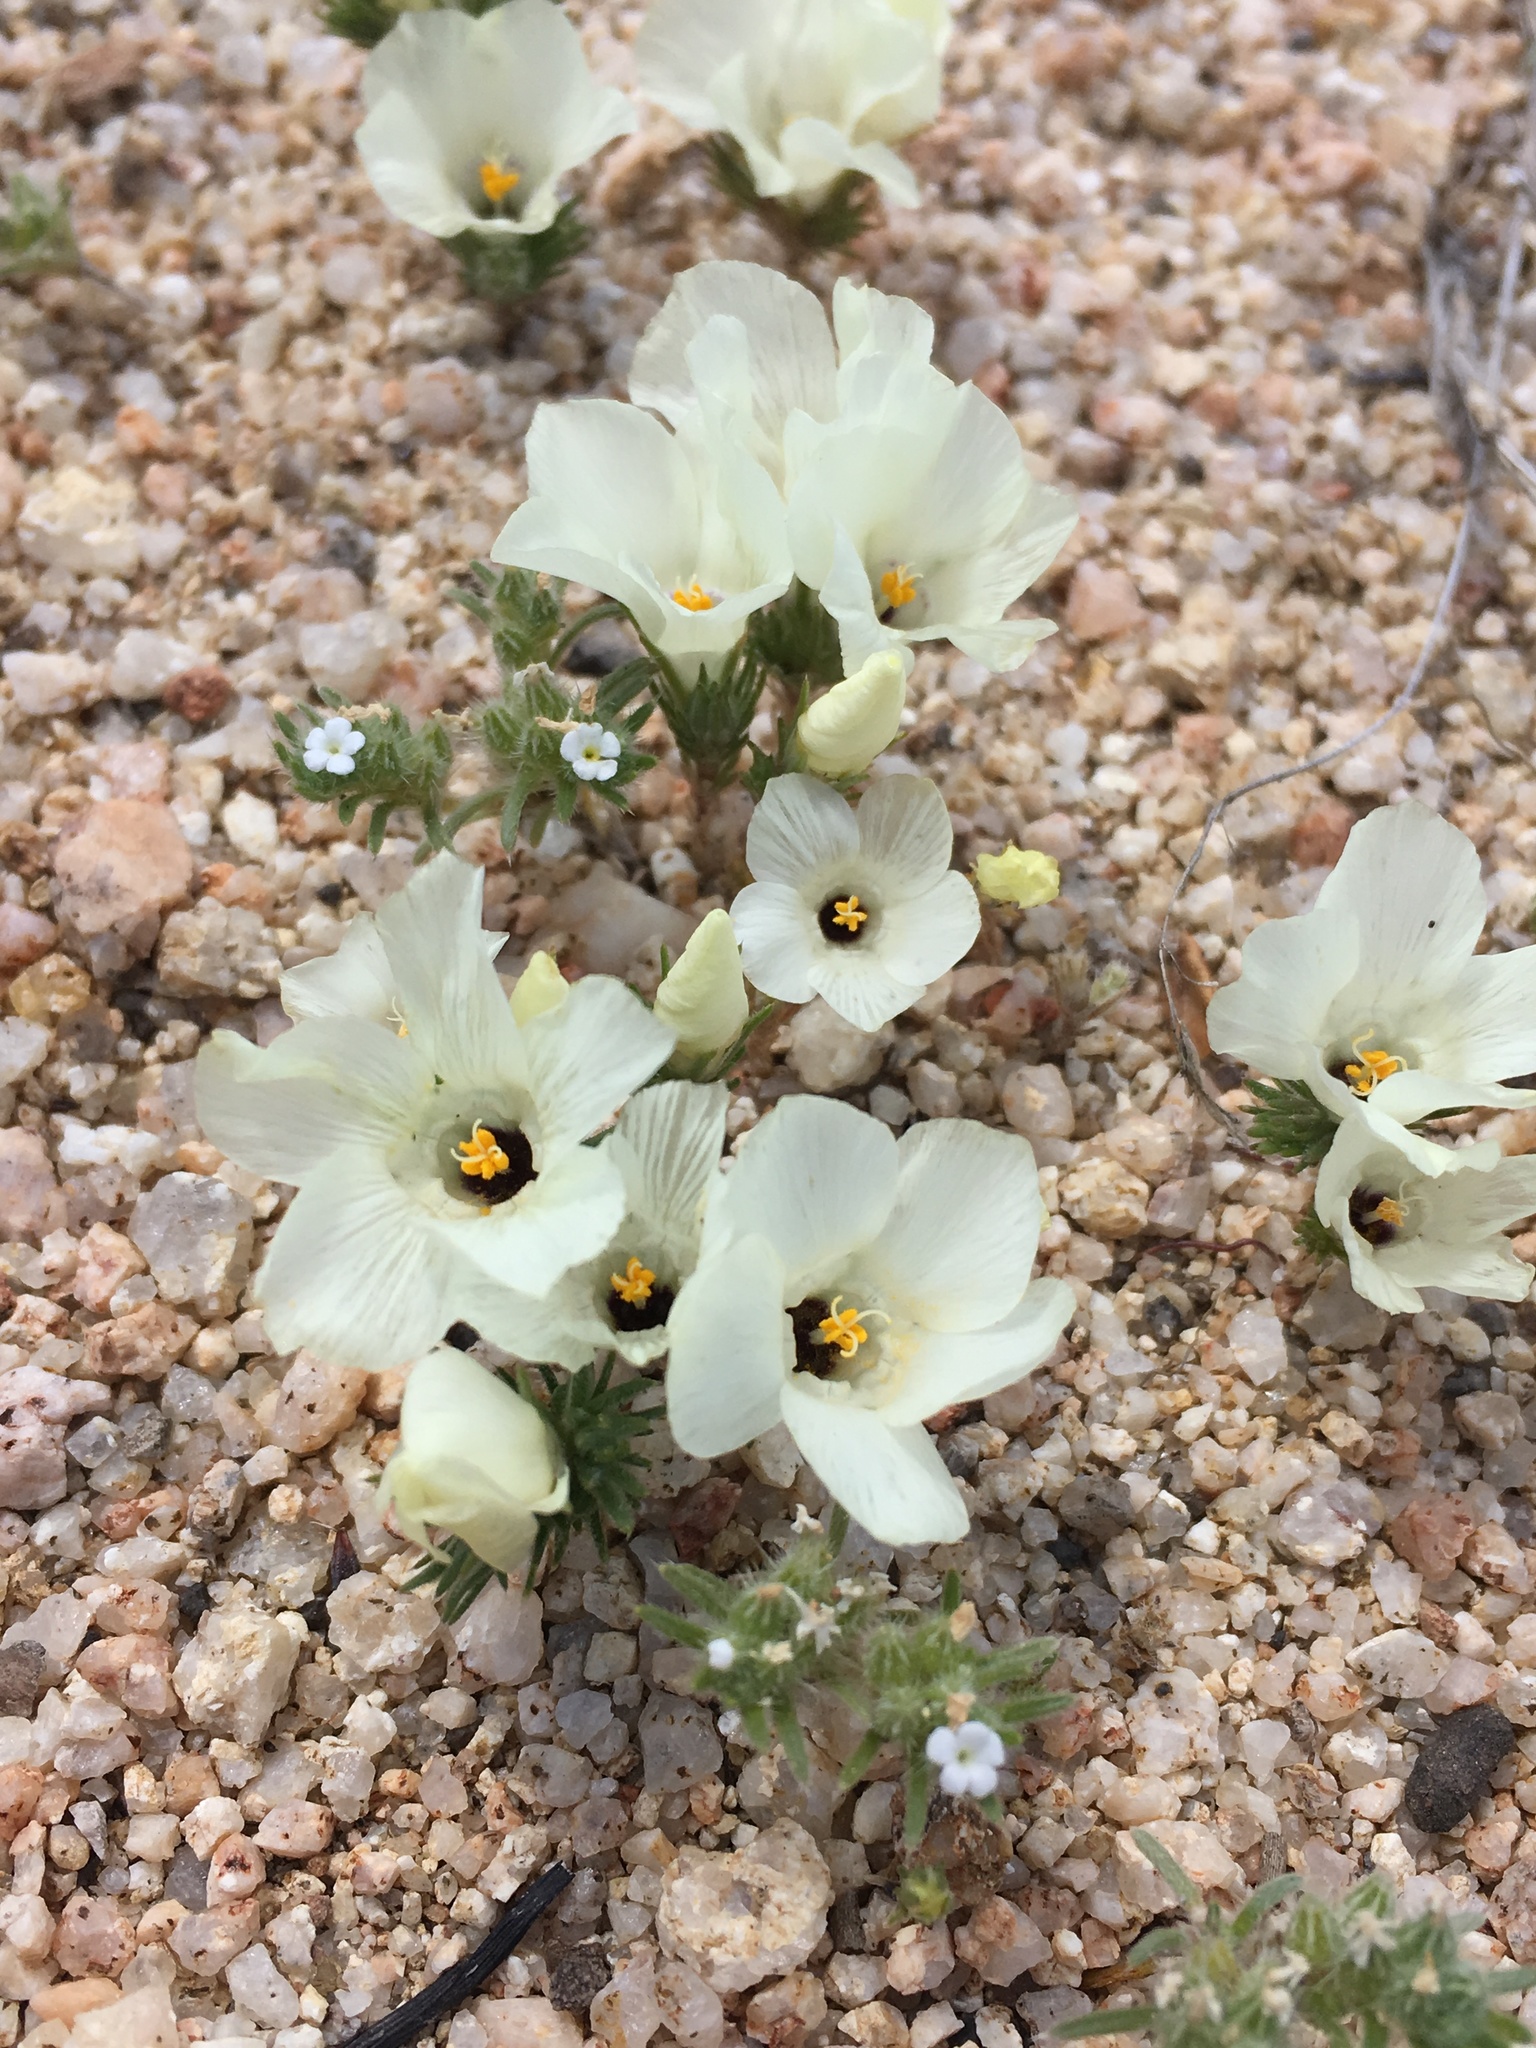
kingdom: Plantae
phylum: Tracheophyta
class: Magnoliopsida
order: Ericales
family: Polemoniaceae
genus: Linanthus
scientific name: Linanthus parryae
